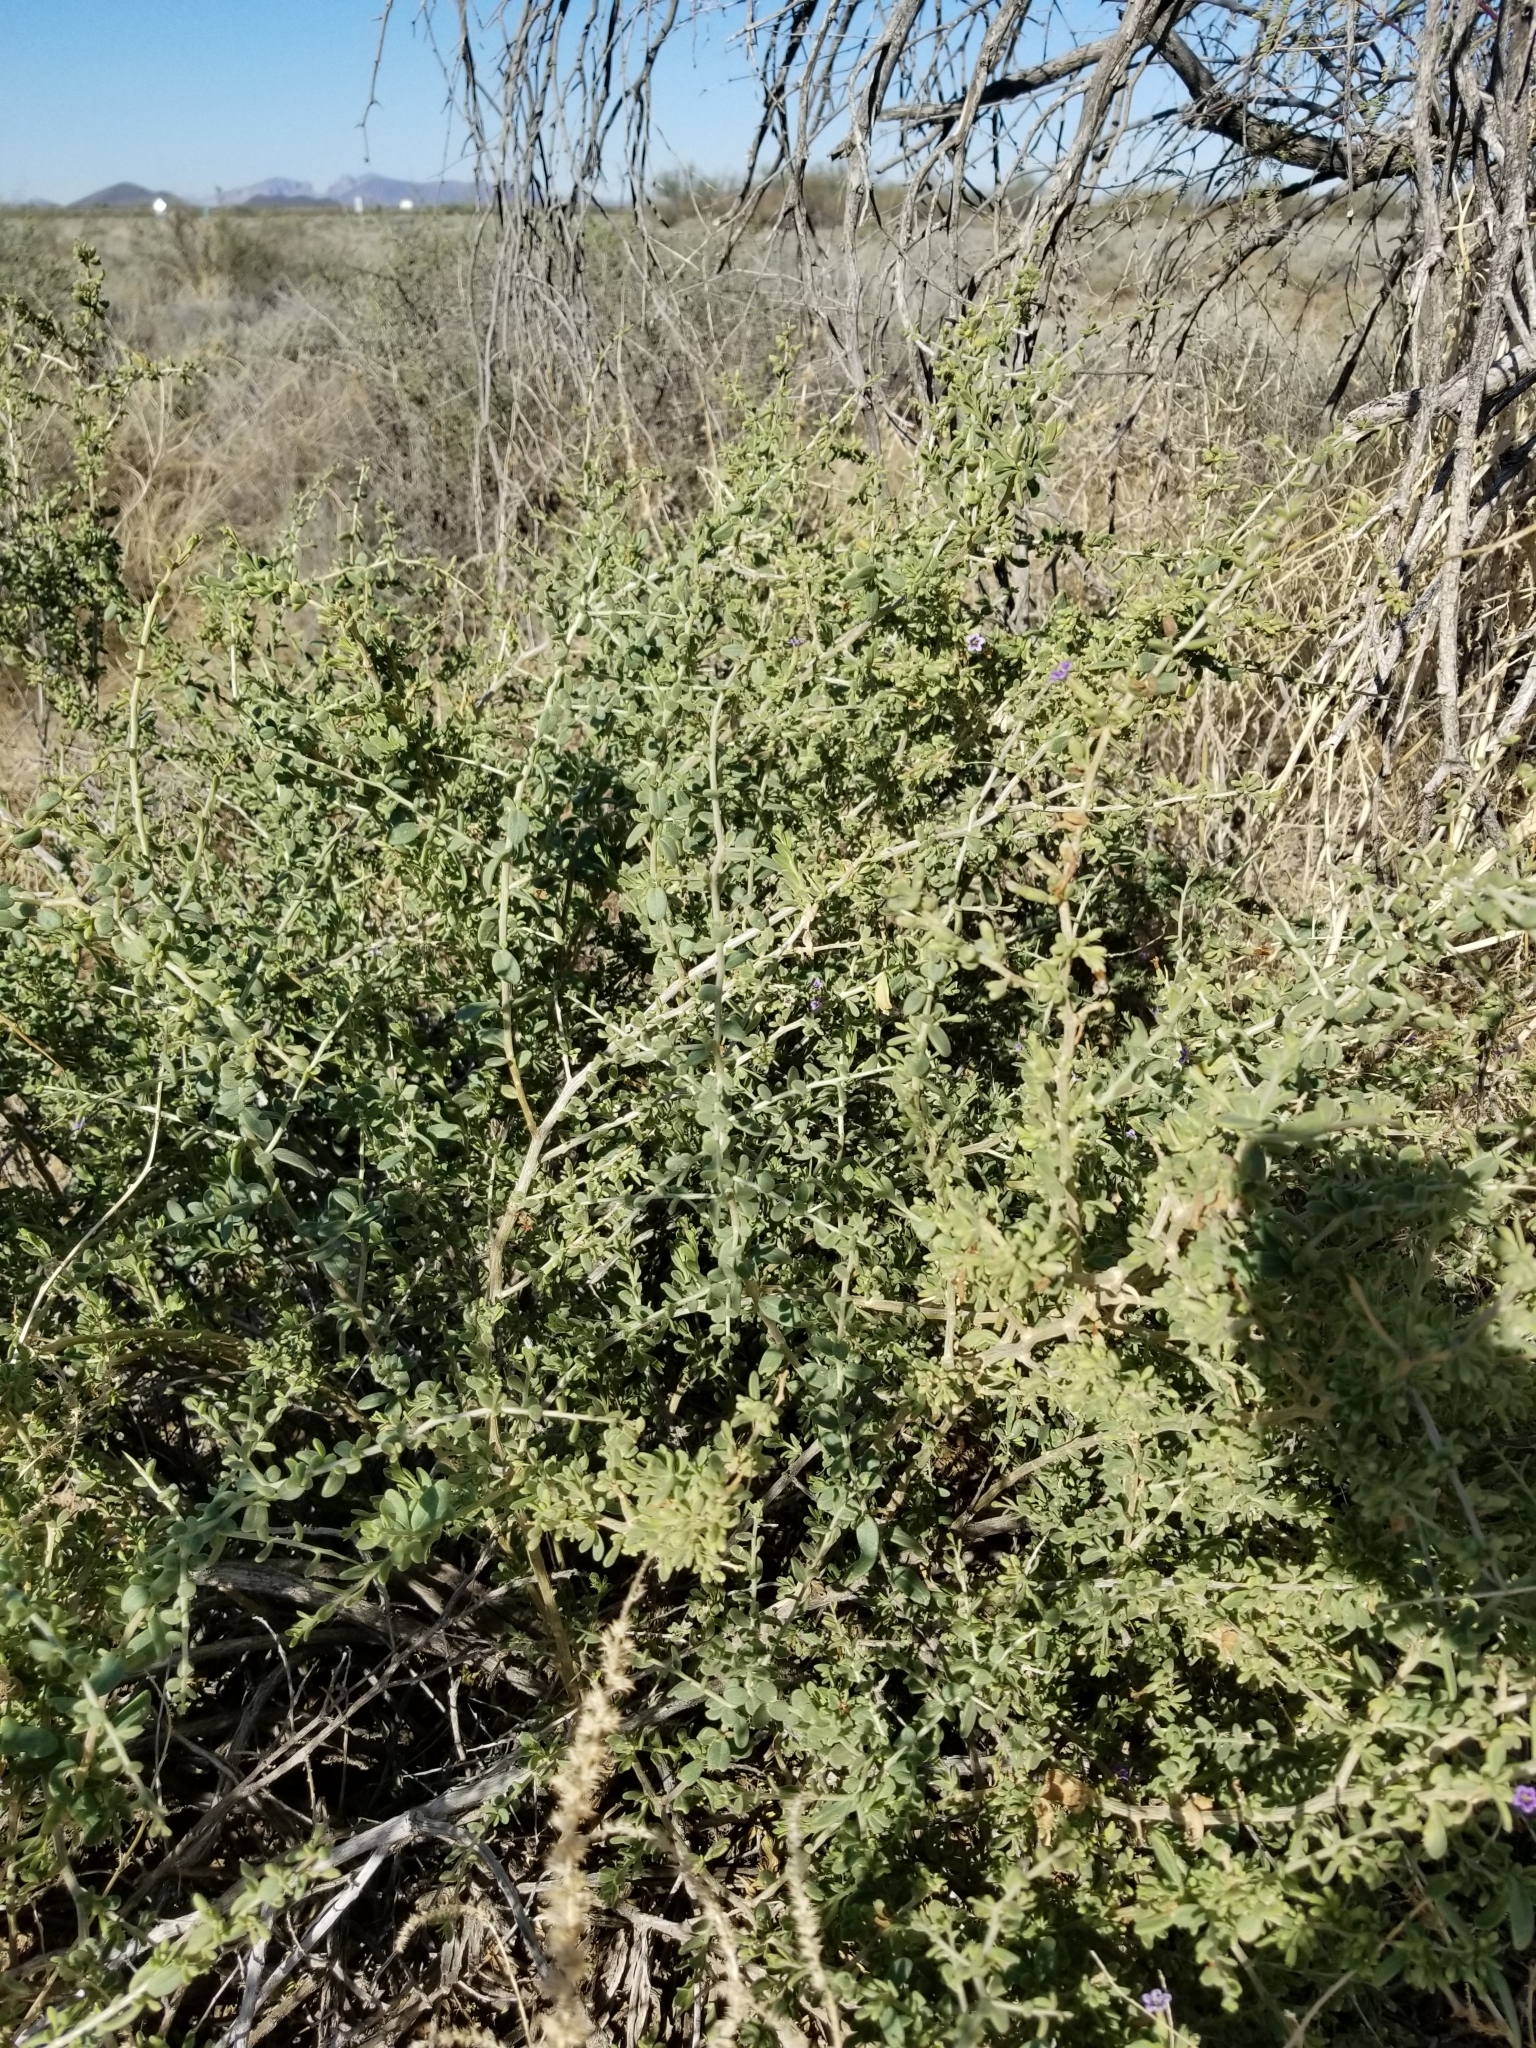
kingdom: Plantae
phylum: Tracheophyta
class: Magnoliopsida
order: Solanales
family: Solanaceae
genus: Lycium
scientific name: Lycium fremontii
